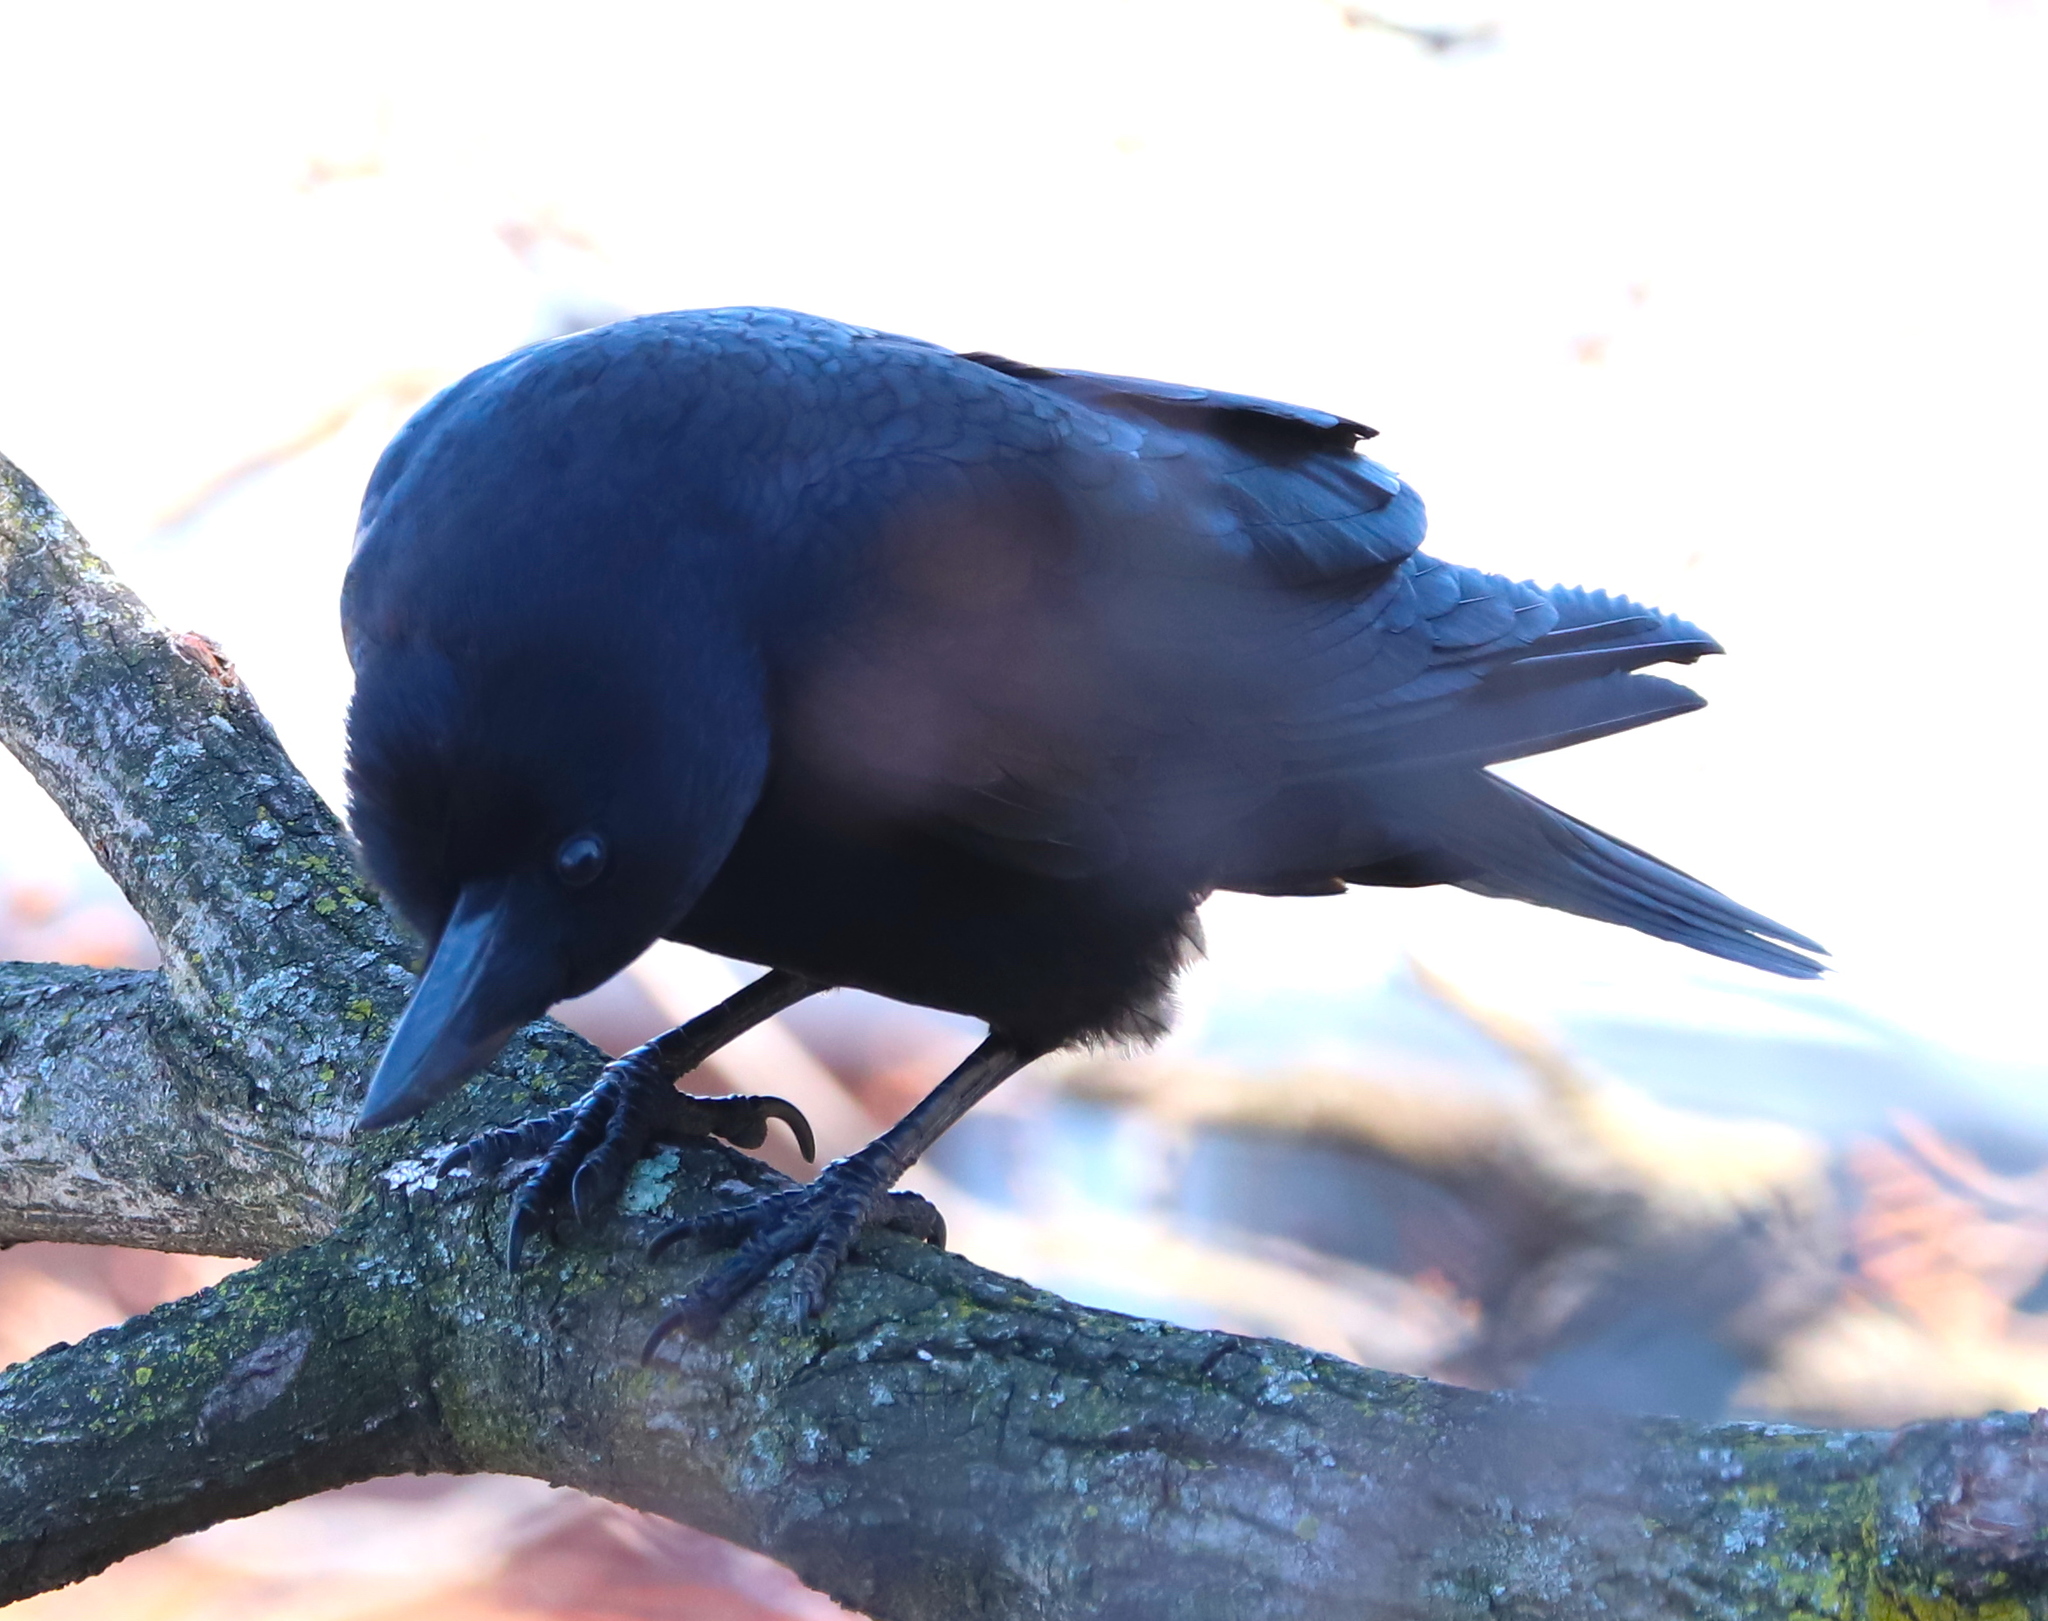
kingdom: Animalia
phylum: Chordata
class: Aves
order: Passeriformes
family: Corvidae
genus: Corvus
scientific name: Corvus brachyrhynchos
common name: American crow
